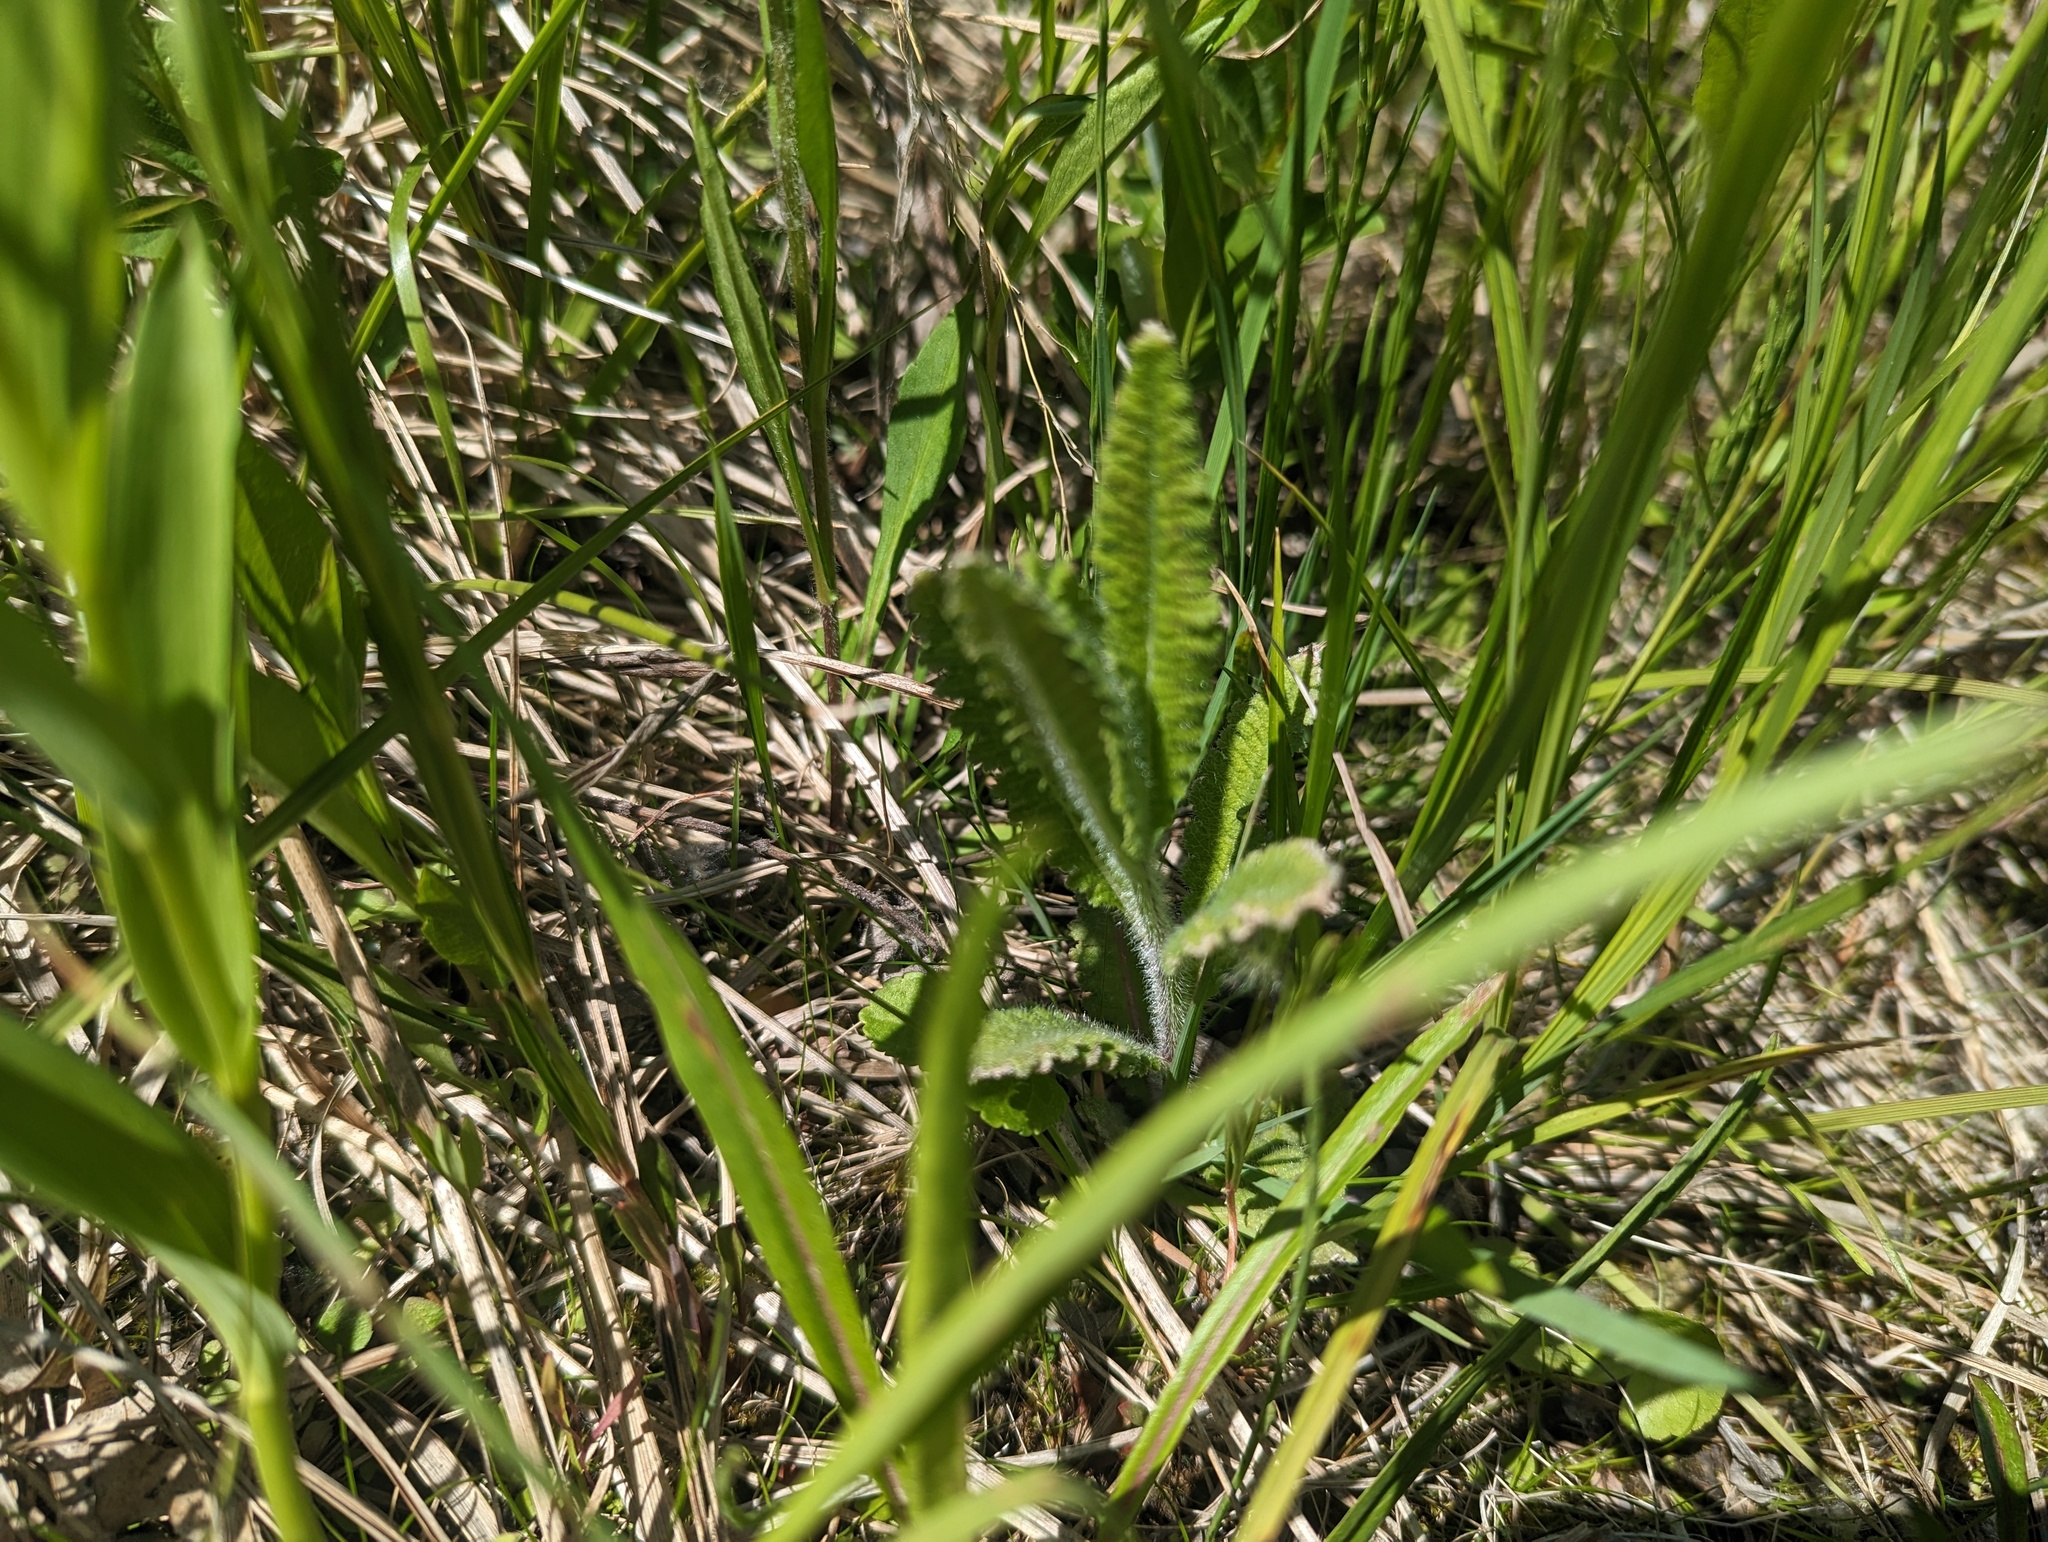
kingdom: Plantae
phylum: Tracheophyta
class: Magnoliopsida
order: Lamiales
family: Orobanchaceae
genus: Pedicularis
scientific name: Pedicularis lanceolata
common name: Swamp lousewort
